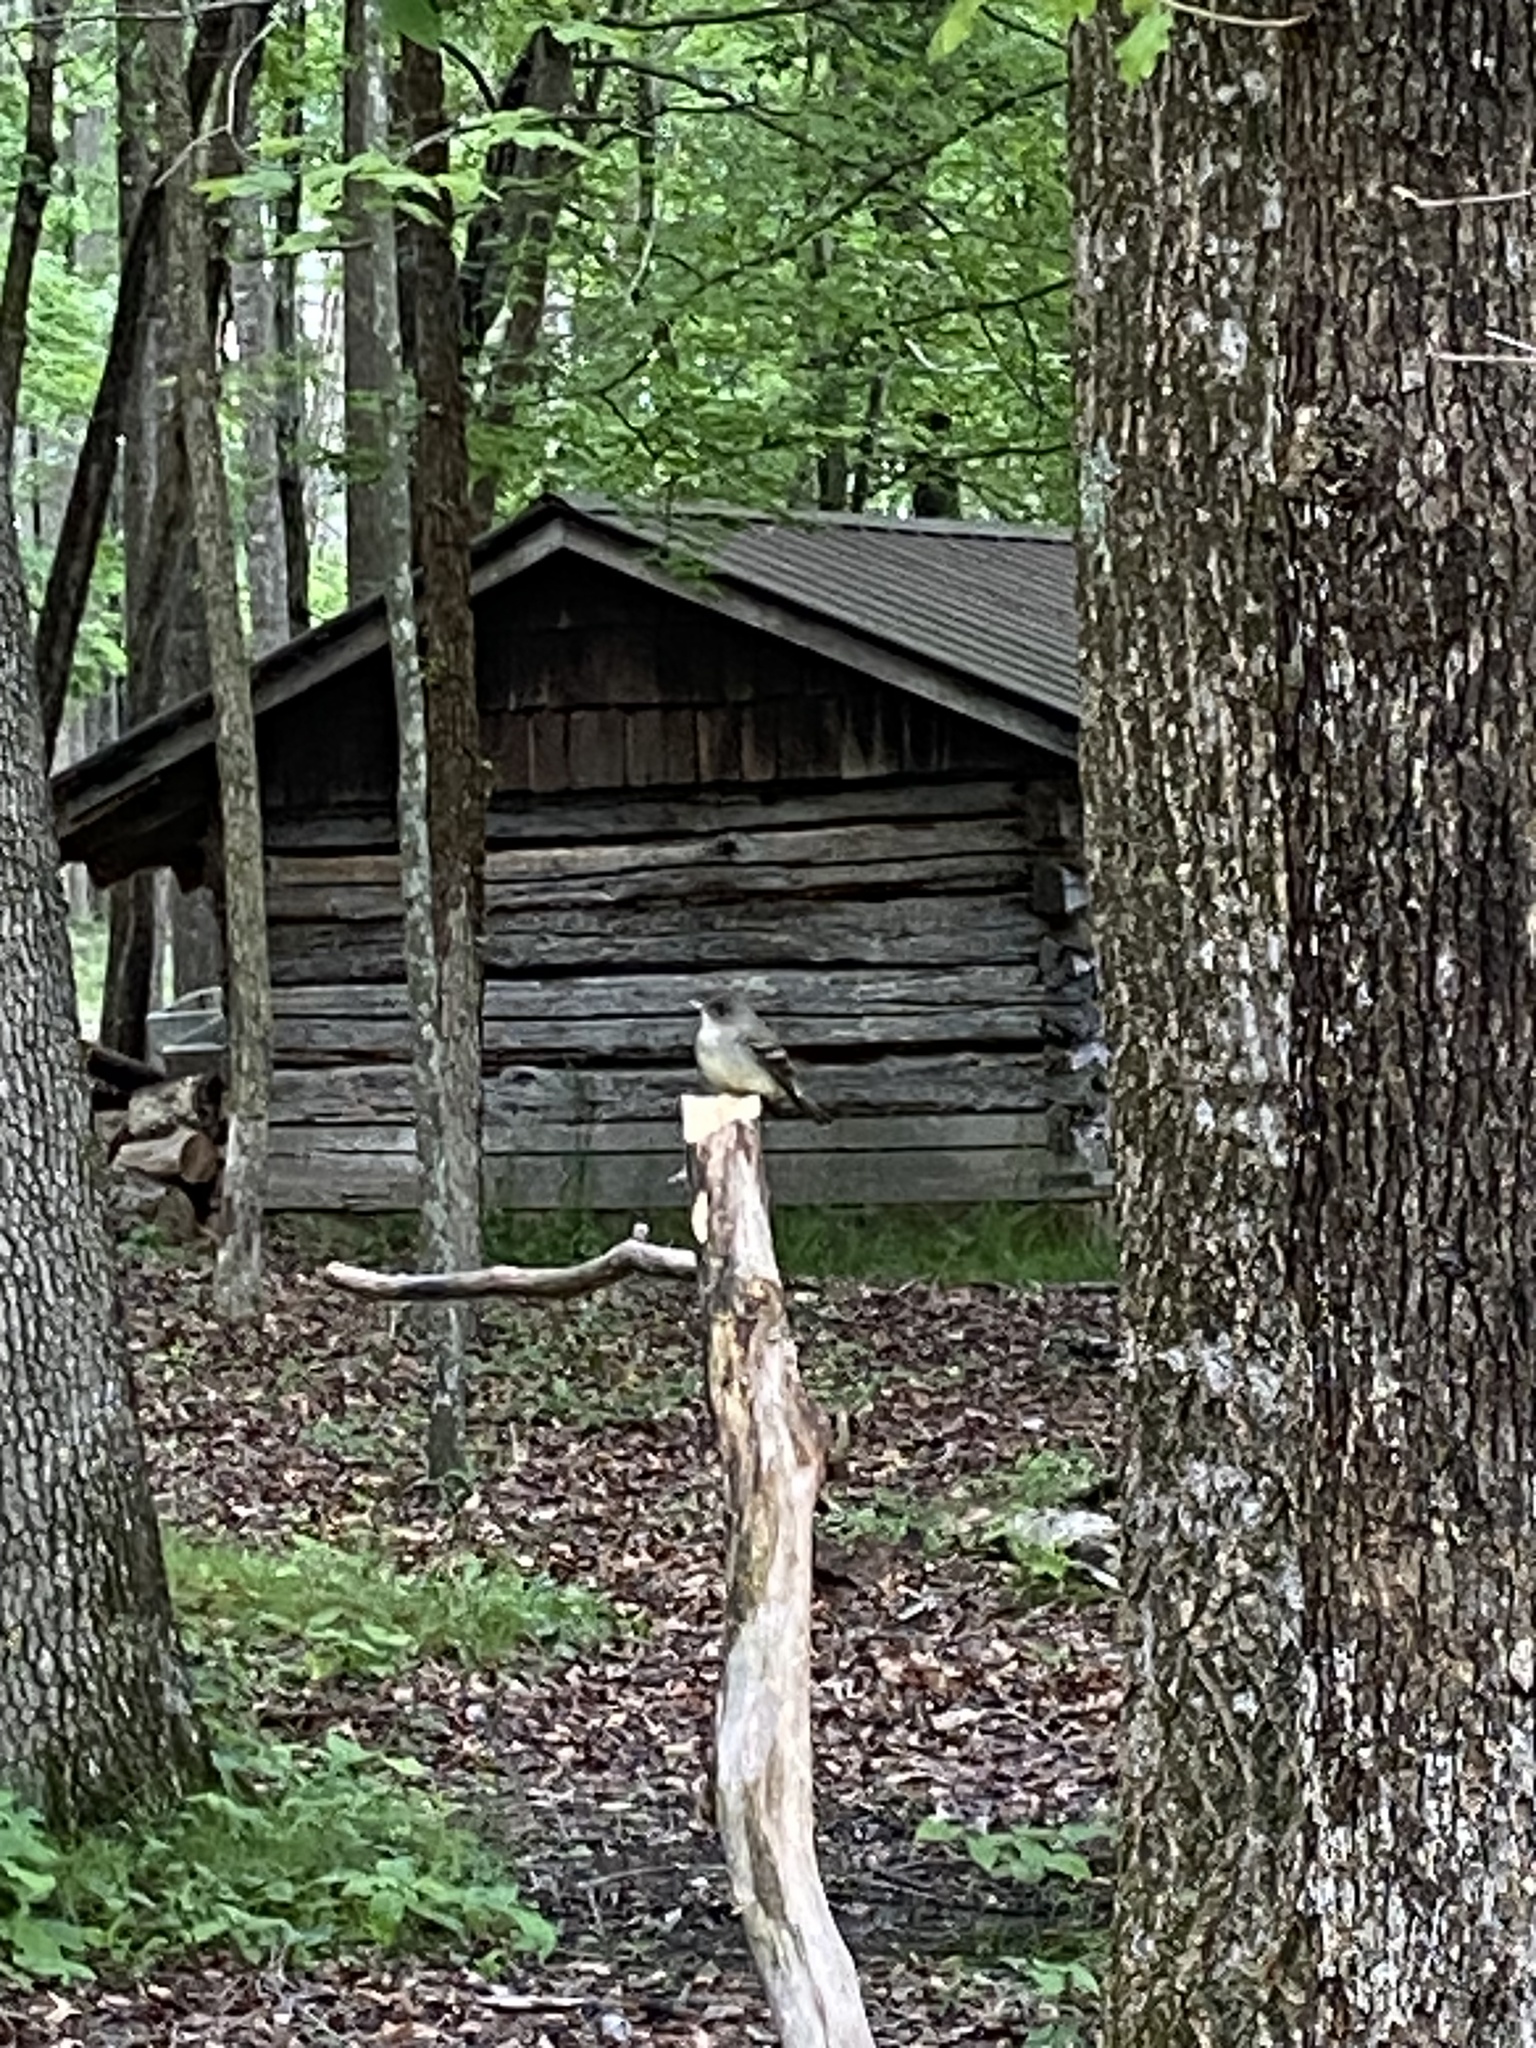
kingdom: Animalia
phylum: Chordata
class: Aves
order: Passeriformes
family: Tyrannidae
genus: Contopus
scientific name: Contopus virens
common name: Eastern wood-pewee
